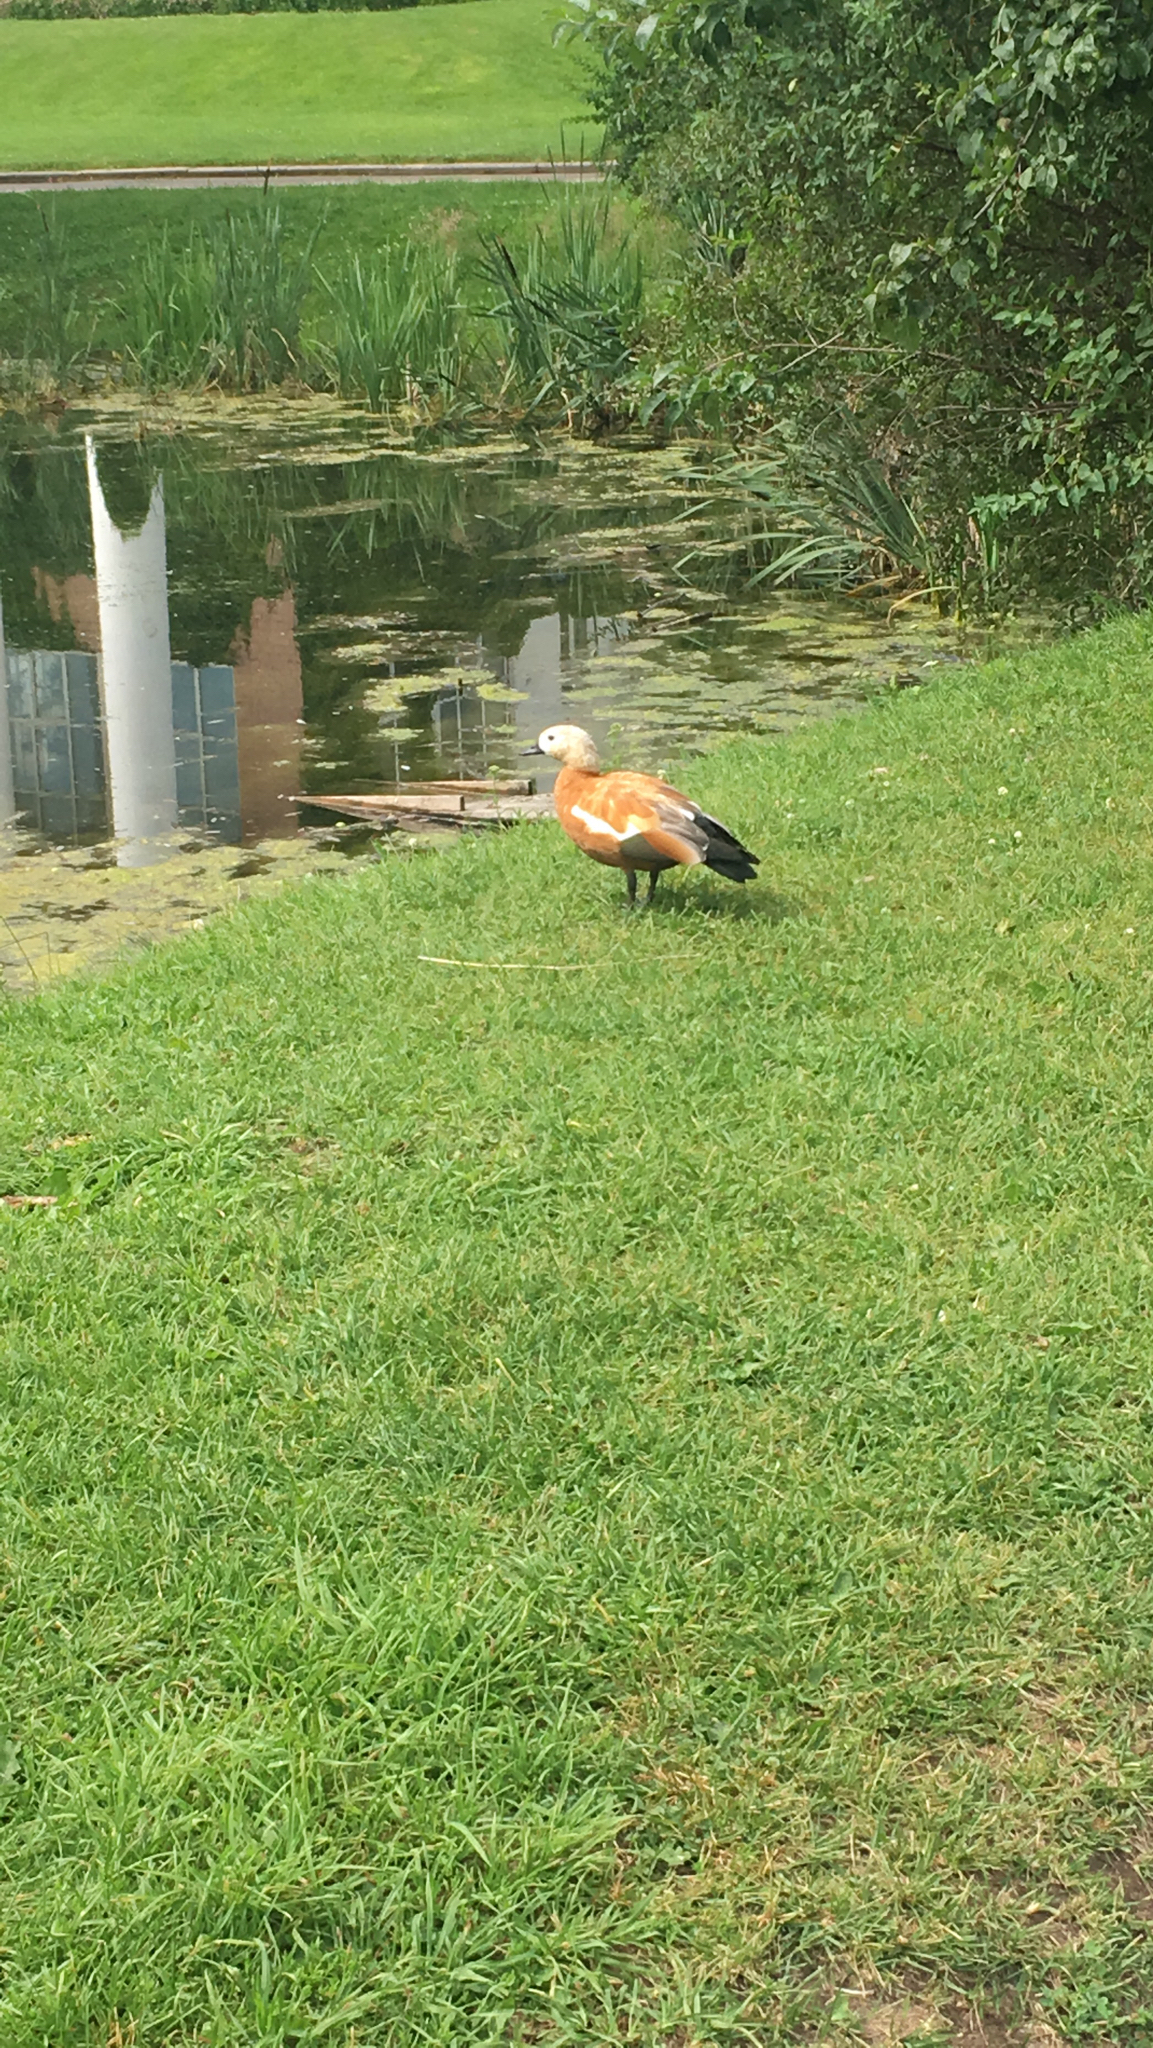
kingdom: Animalia
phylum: Chordata
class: Aves
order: Anseriformes
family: Anatidae
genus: Tadorna
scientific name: Tadorna ferruginea
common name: Ruddy shelduck
